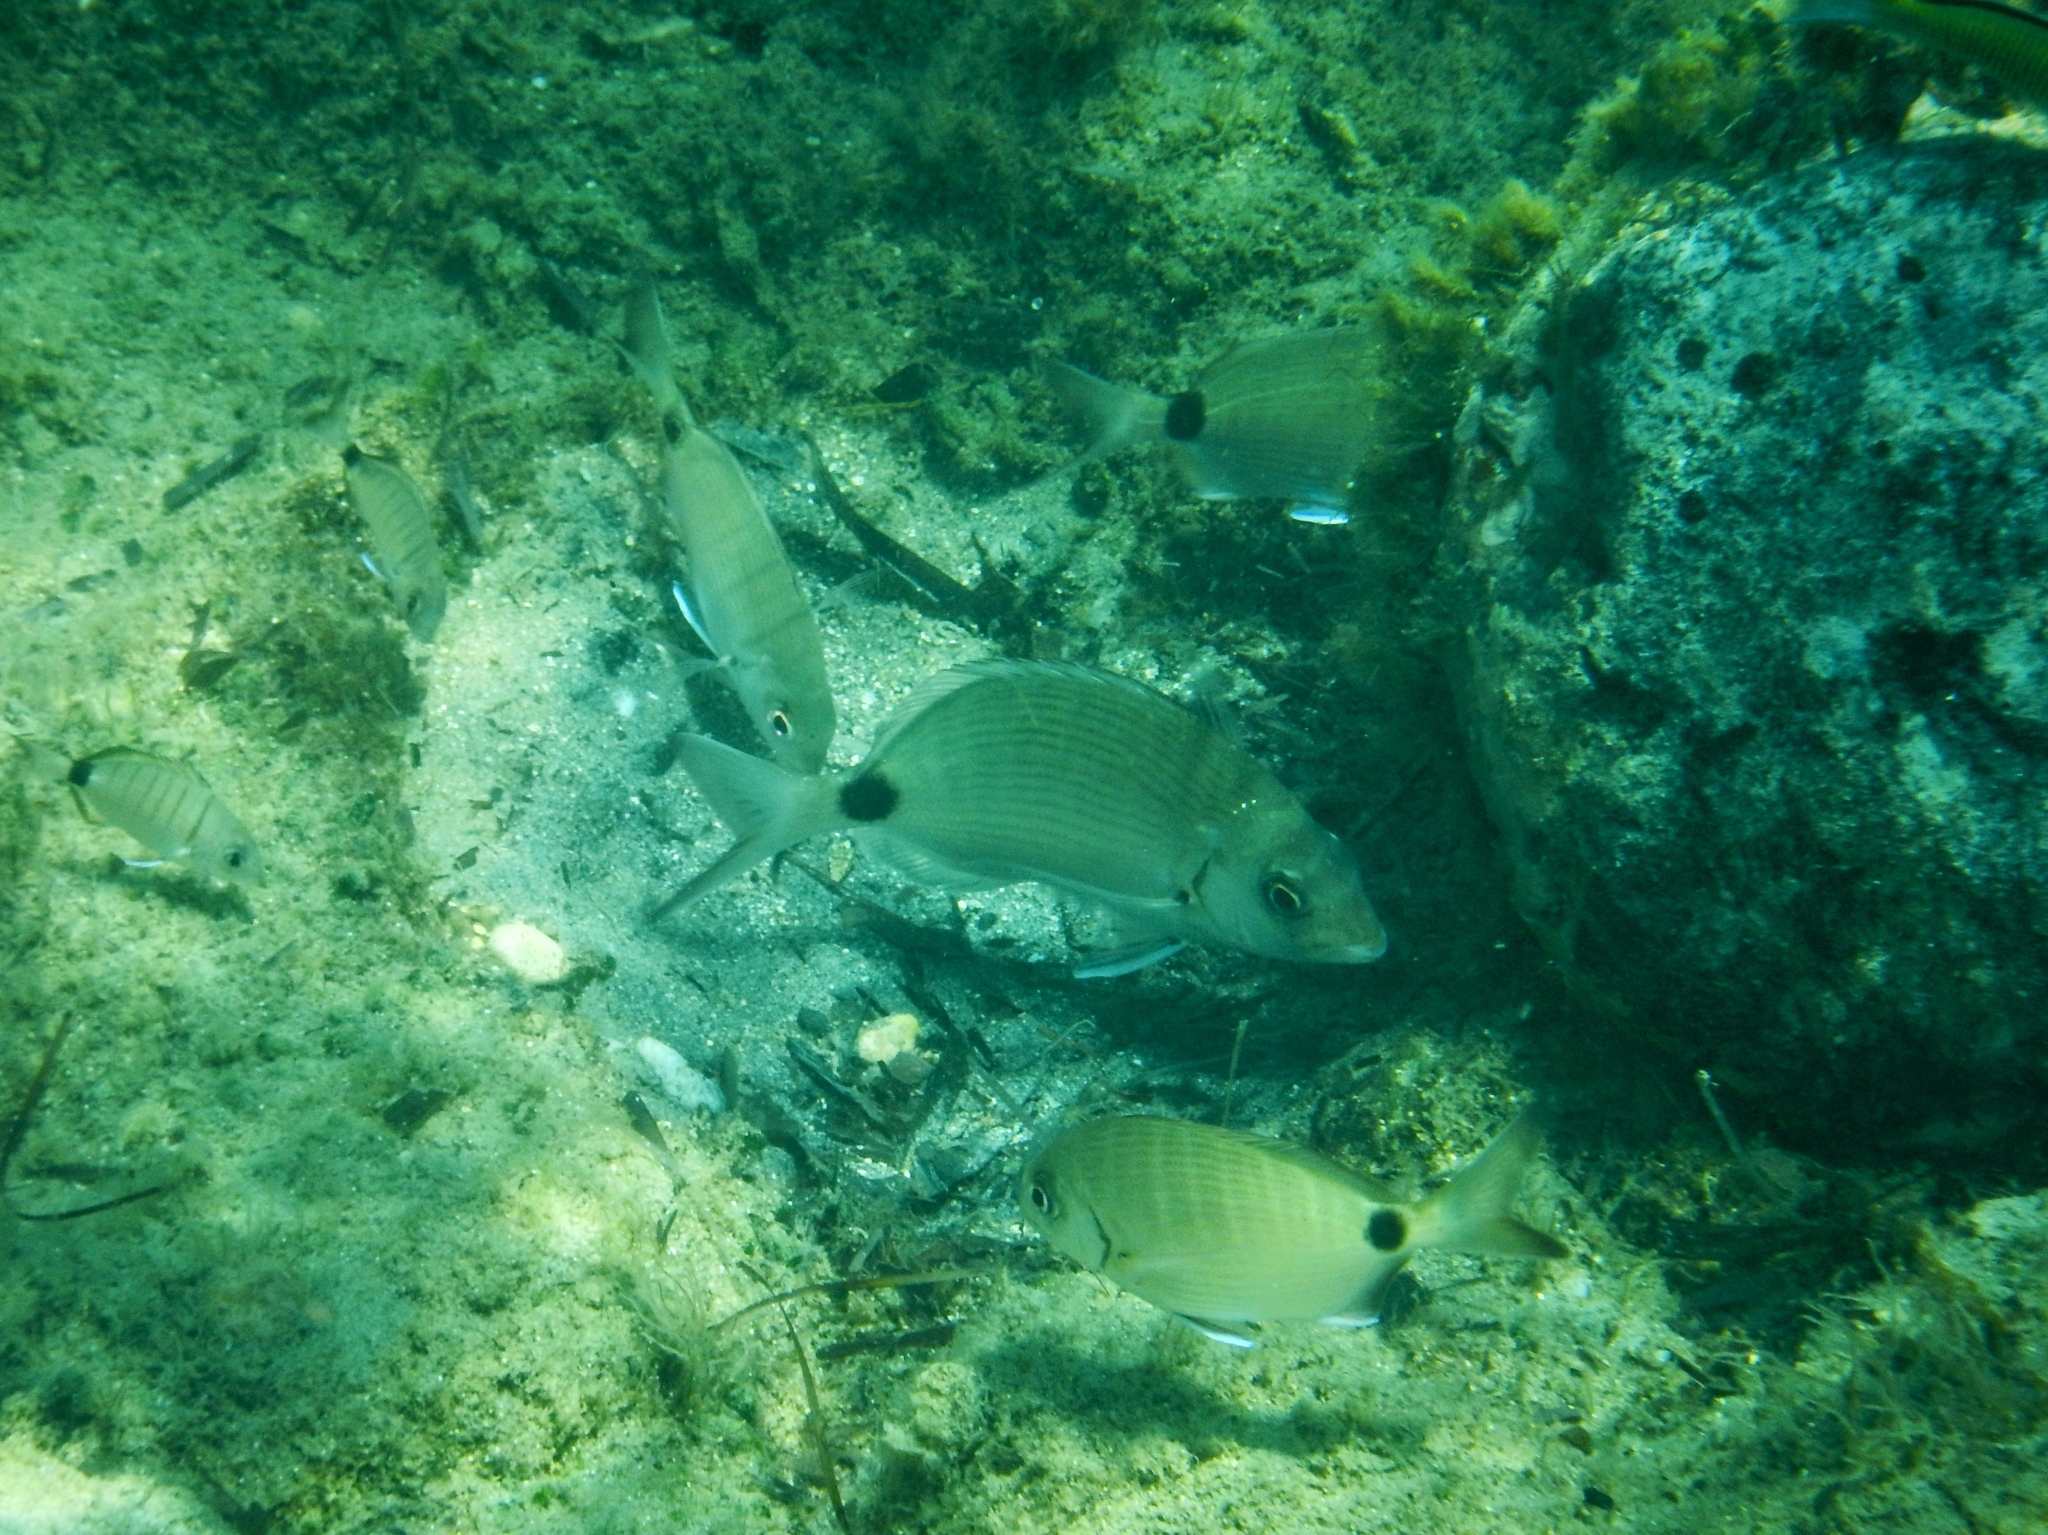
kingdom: Animalia
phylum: Chordata
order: Perciformes
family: Sparidae
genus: Diplodus
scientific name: Diplodus sargus
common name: White seabream
